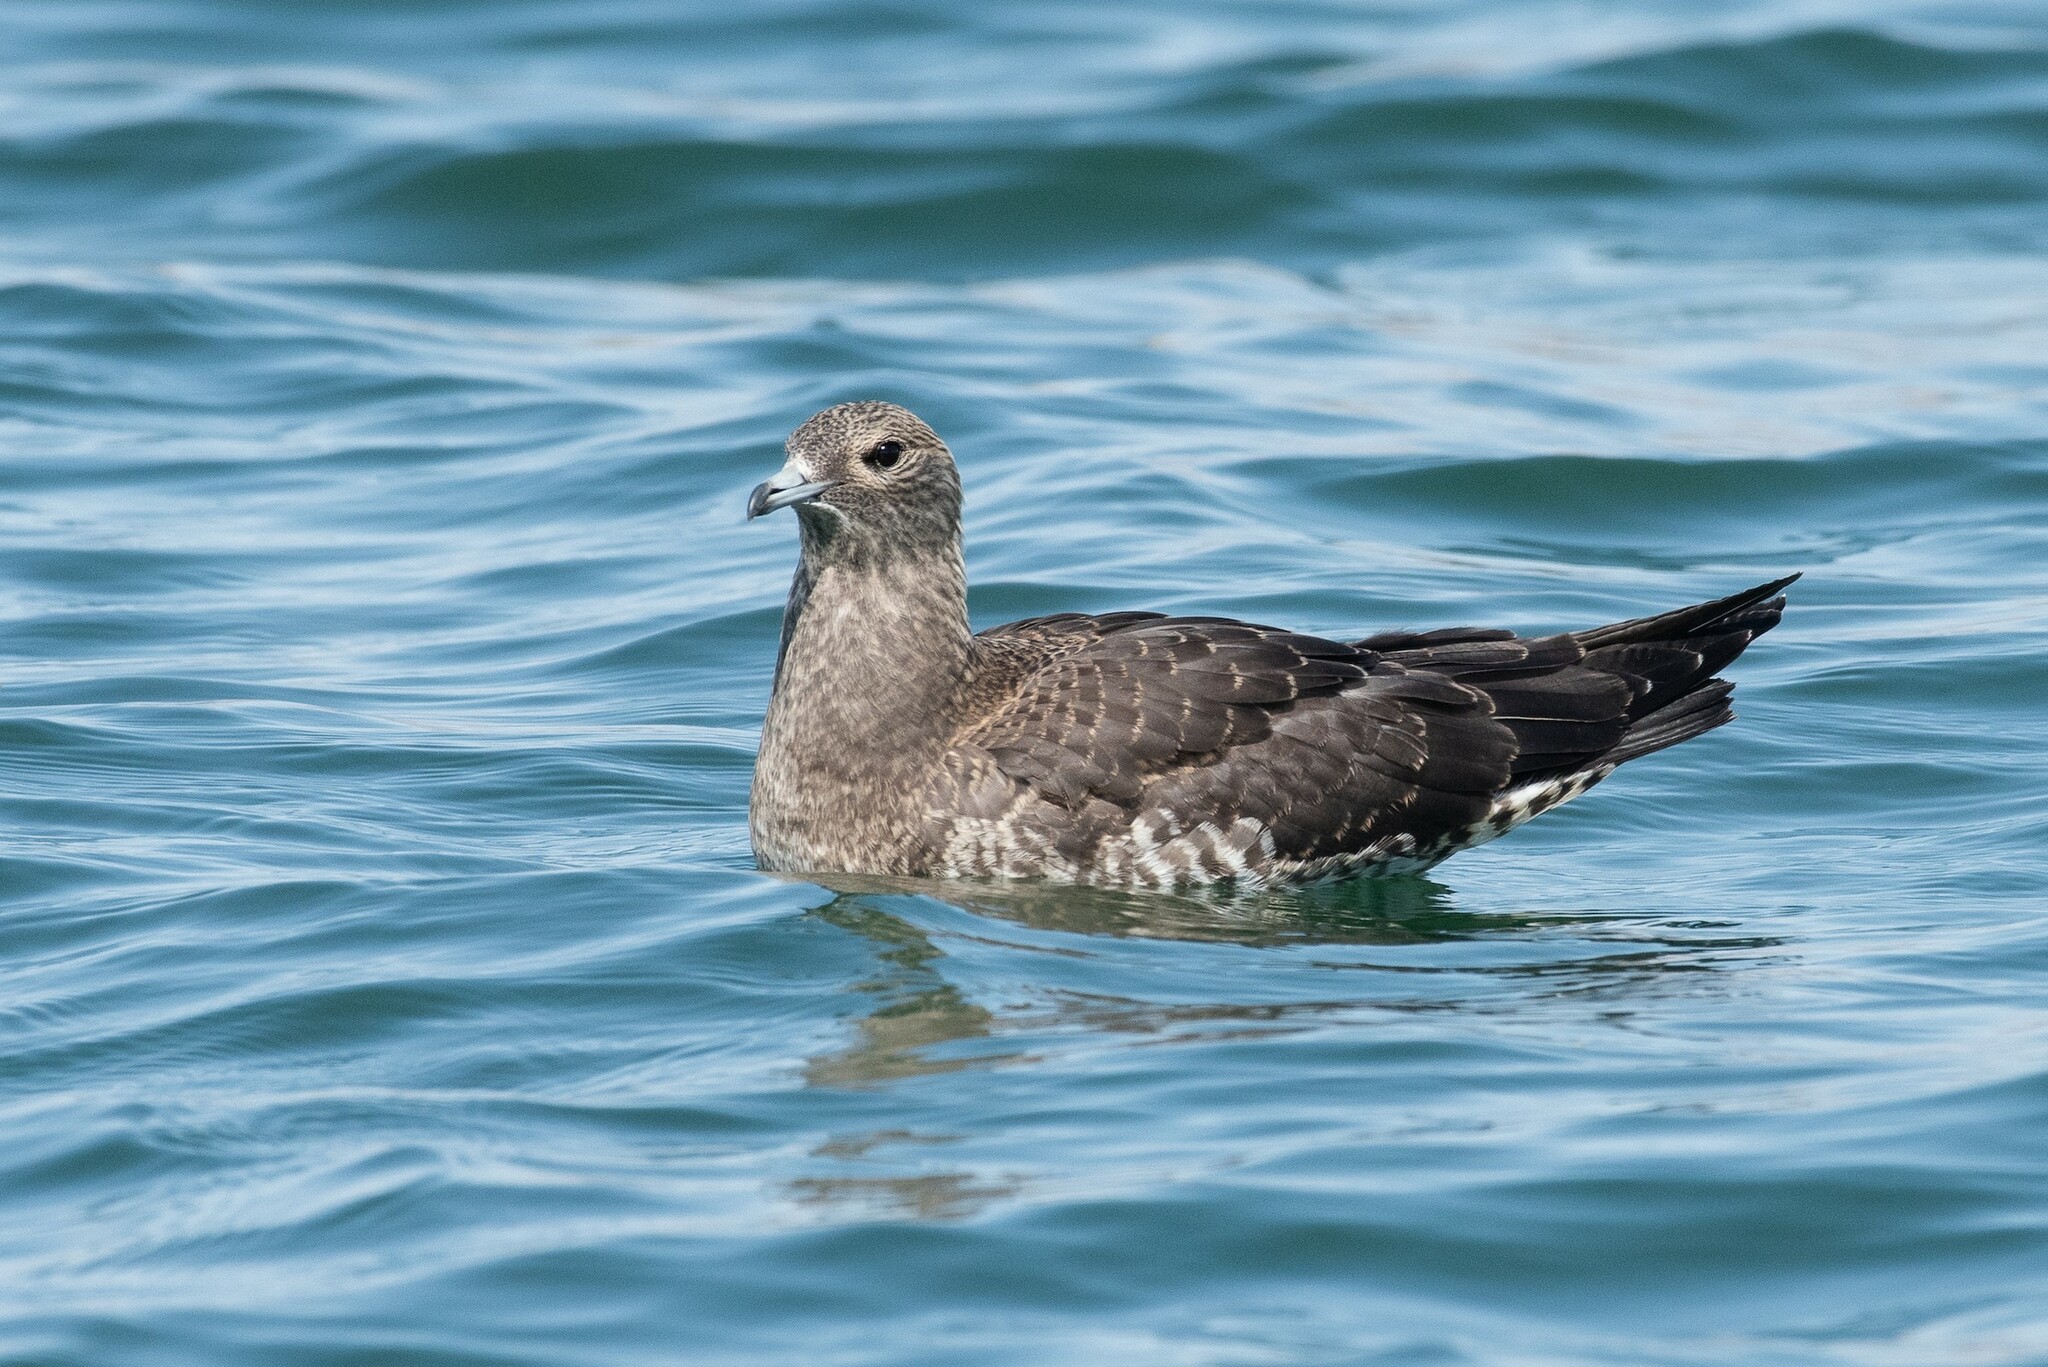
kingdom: Animalia
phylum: Chordata
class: Aves
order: Charadriiformes
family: Stercorariidae
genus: Stercorarius
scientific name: Stercorarius parasiticus
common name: Parasitic jaeger
